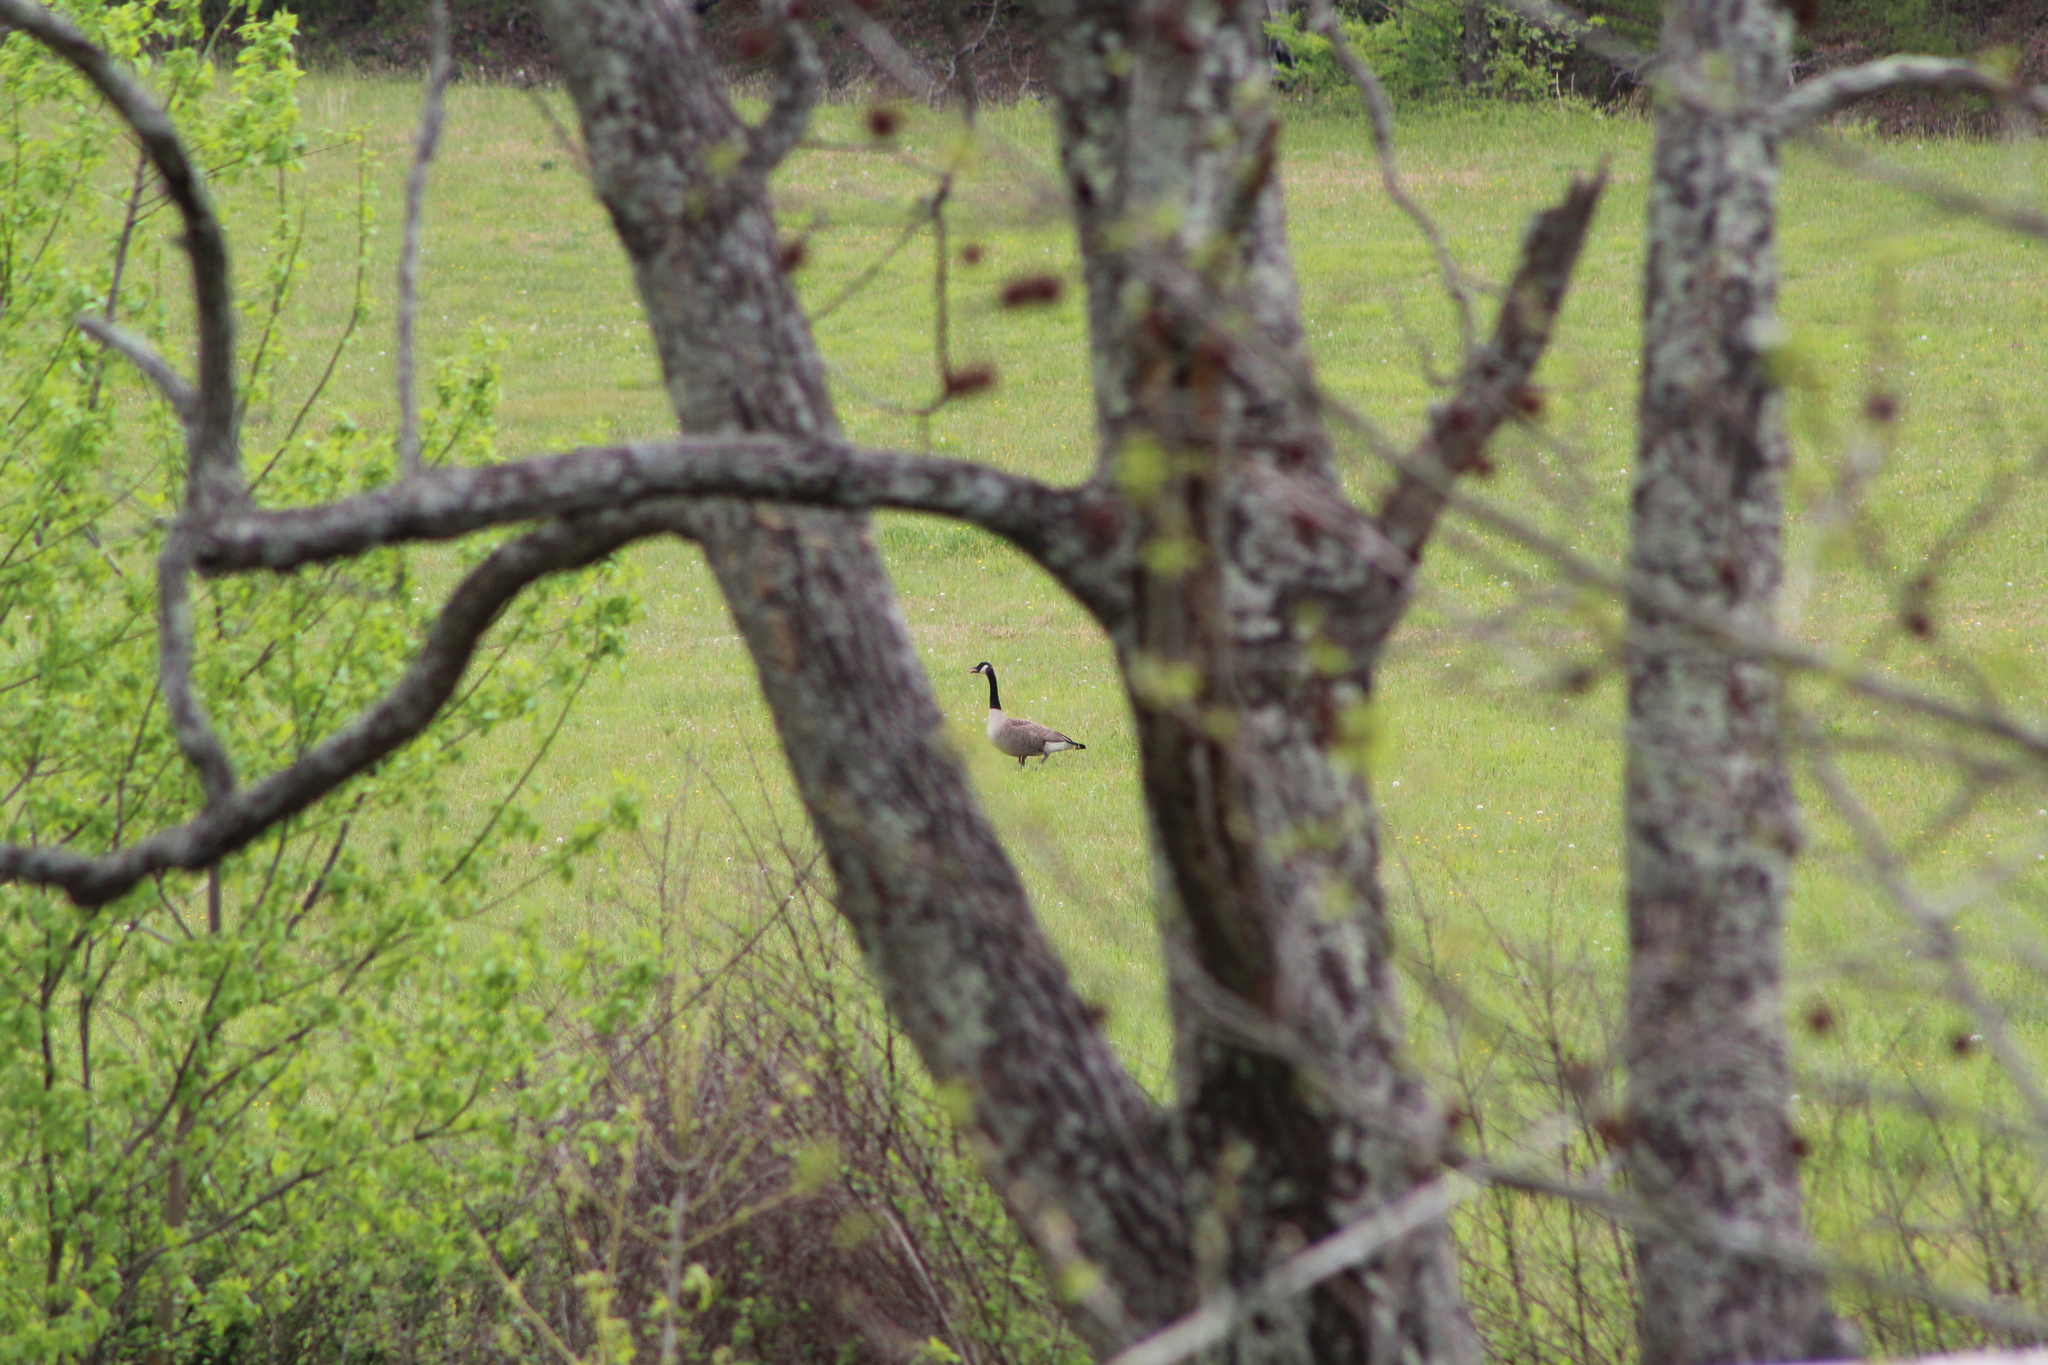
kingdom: Animalia
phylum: Chordata
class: Aves
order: Anseriformes
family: Anatidae
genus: Branta
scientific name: Branta canadensis
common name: Canada goose
